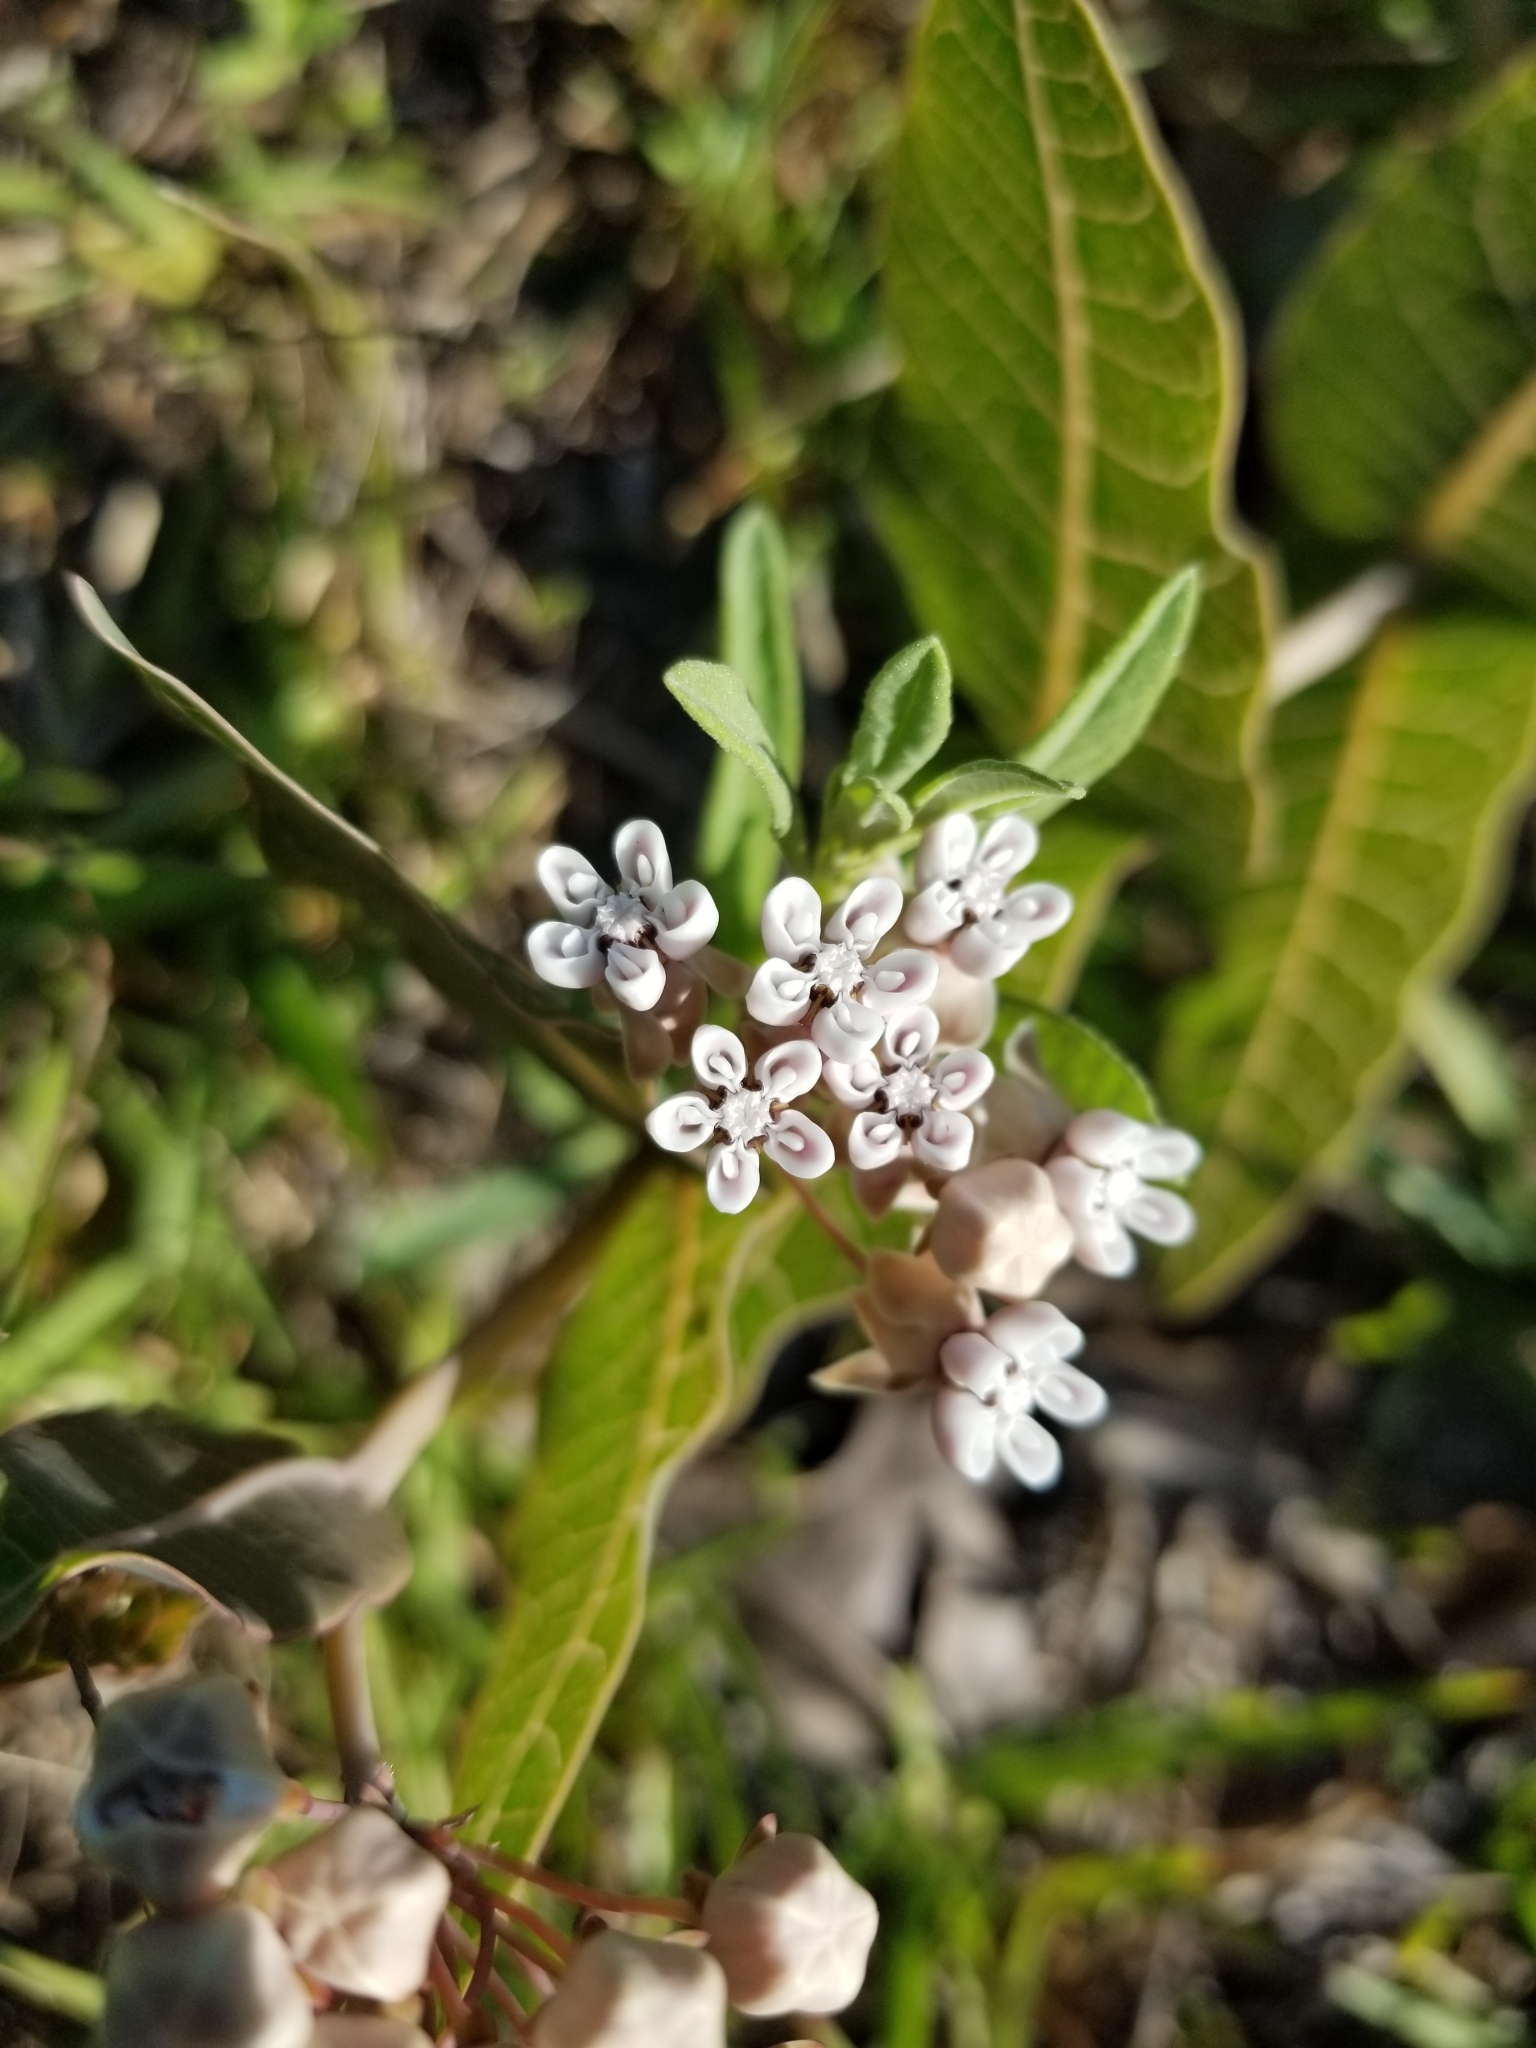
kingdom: Plantae
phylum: Tracheophyta
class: Magnoliopsida
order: Gentianales
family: Apocynaceae
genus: Asclepias
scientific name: Asclepias humistrata
